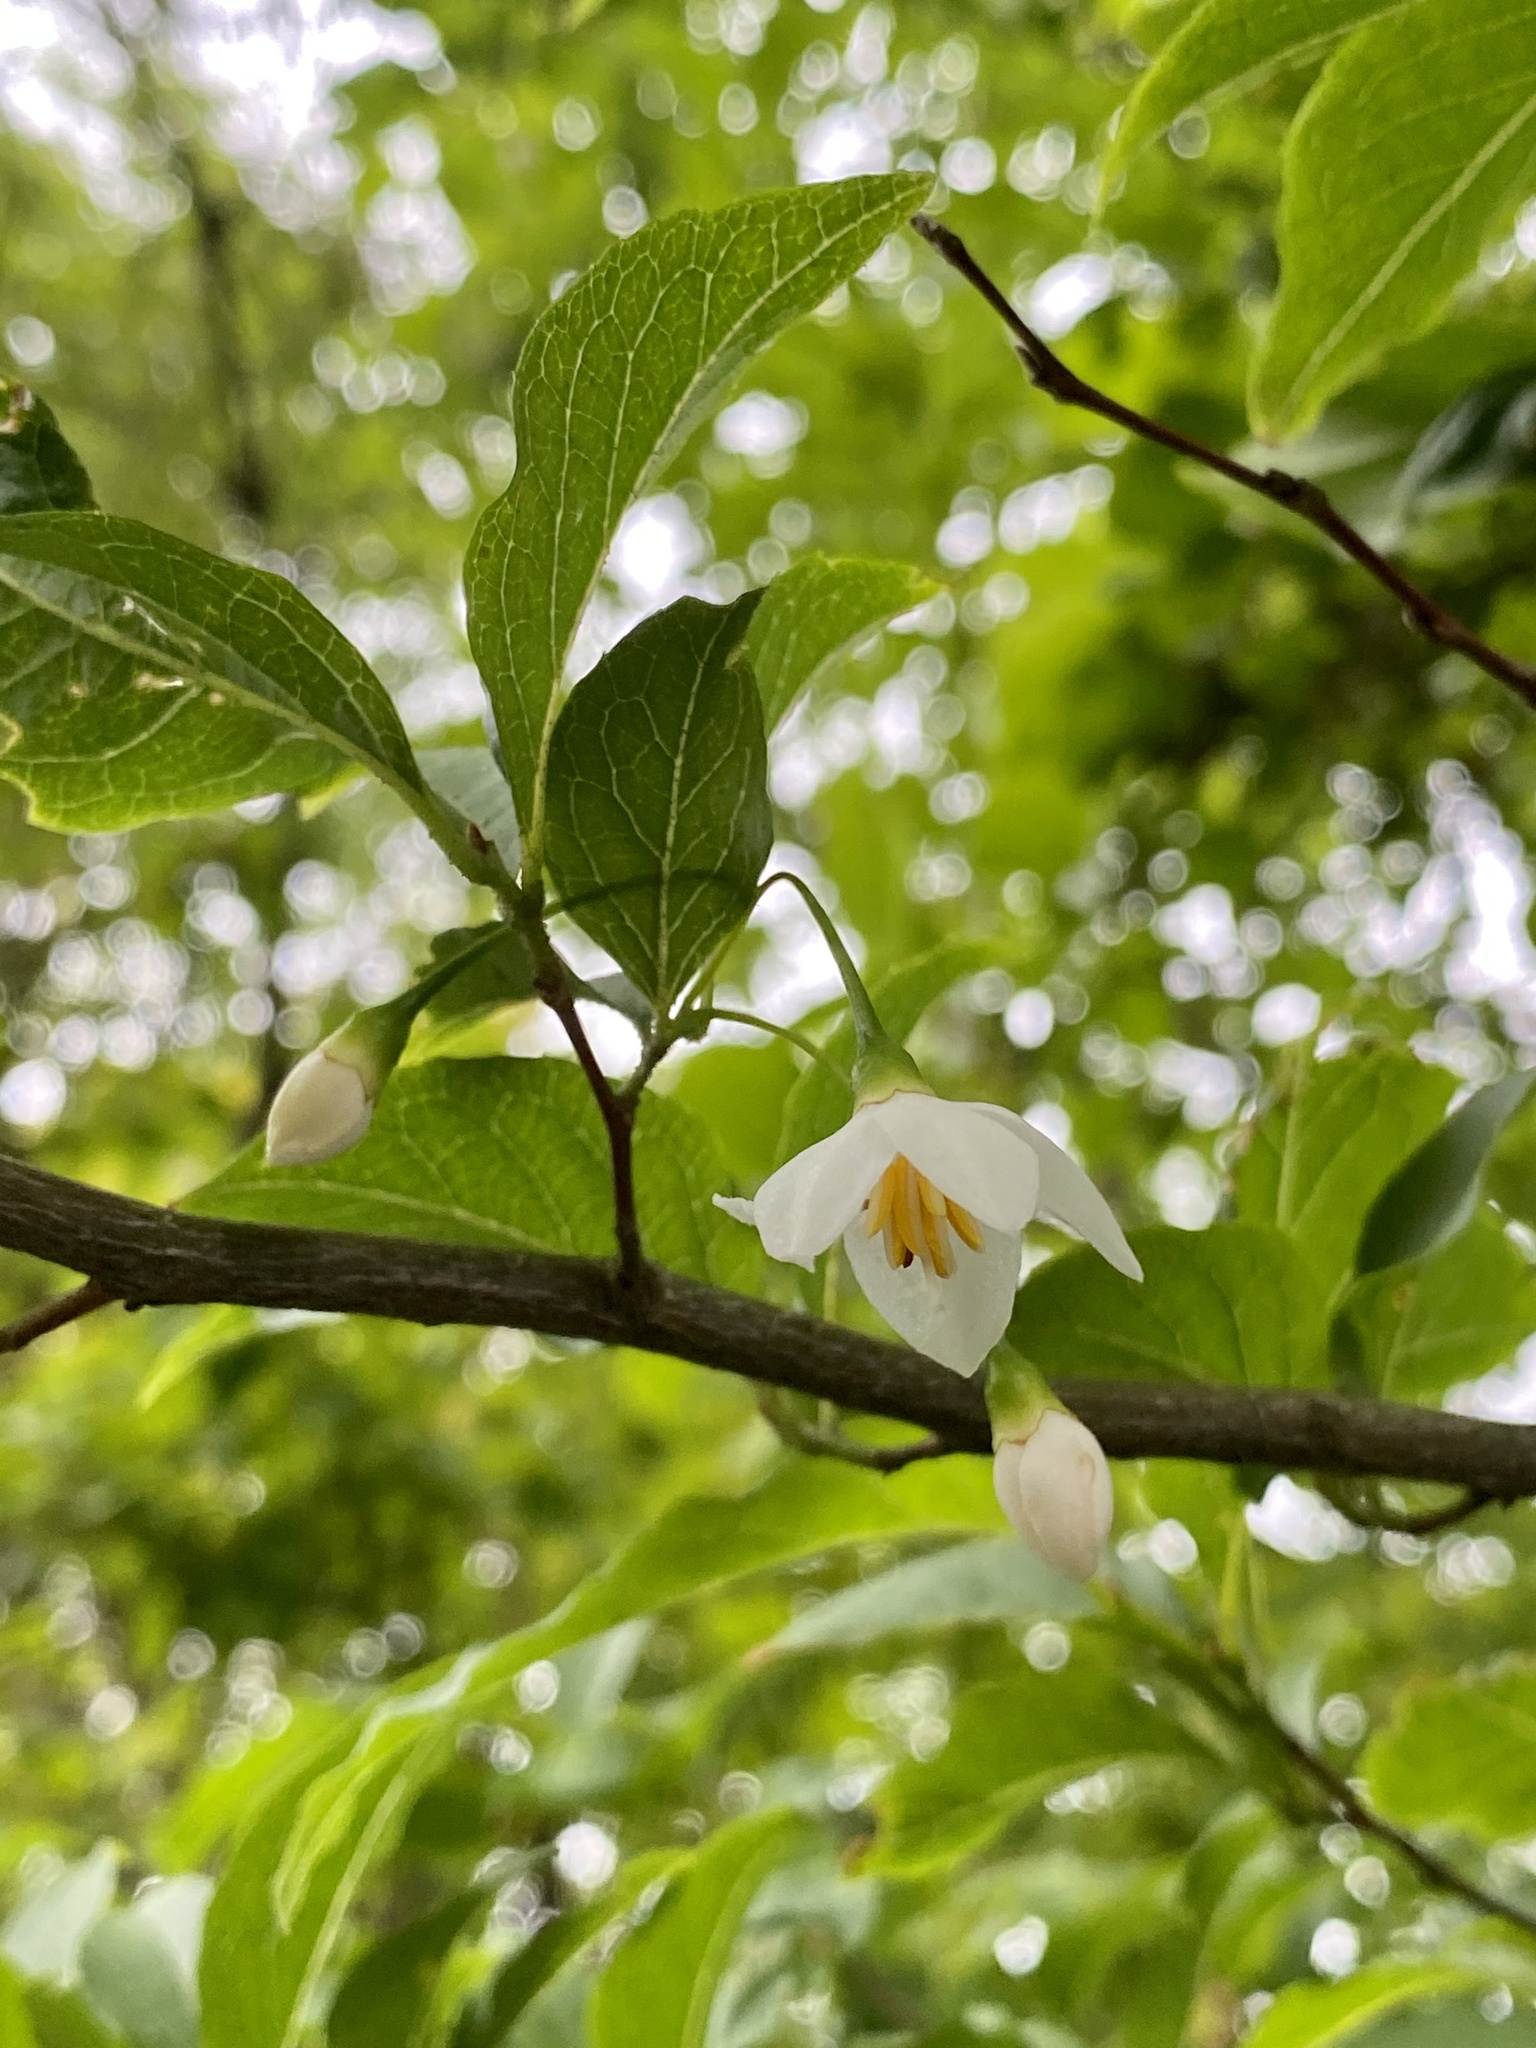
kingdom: Plantae
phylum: Tracheophyta
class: Magnoliopsida
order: Ericales
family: Styracaceae
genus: Styrax
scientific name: Styrax japonicus
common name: Japanese snowbell
